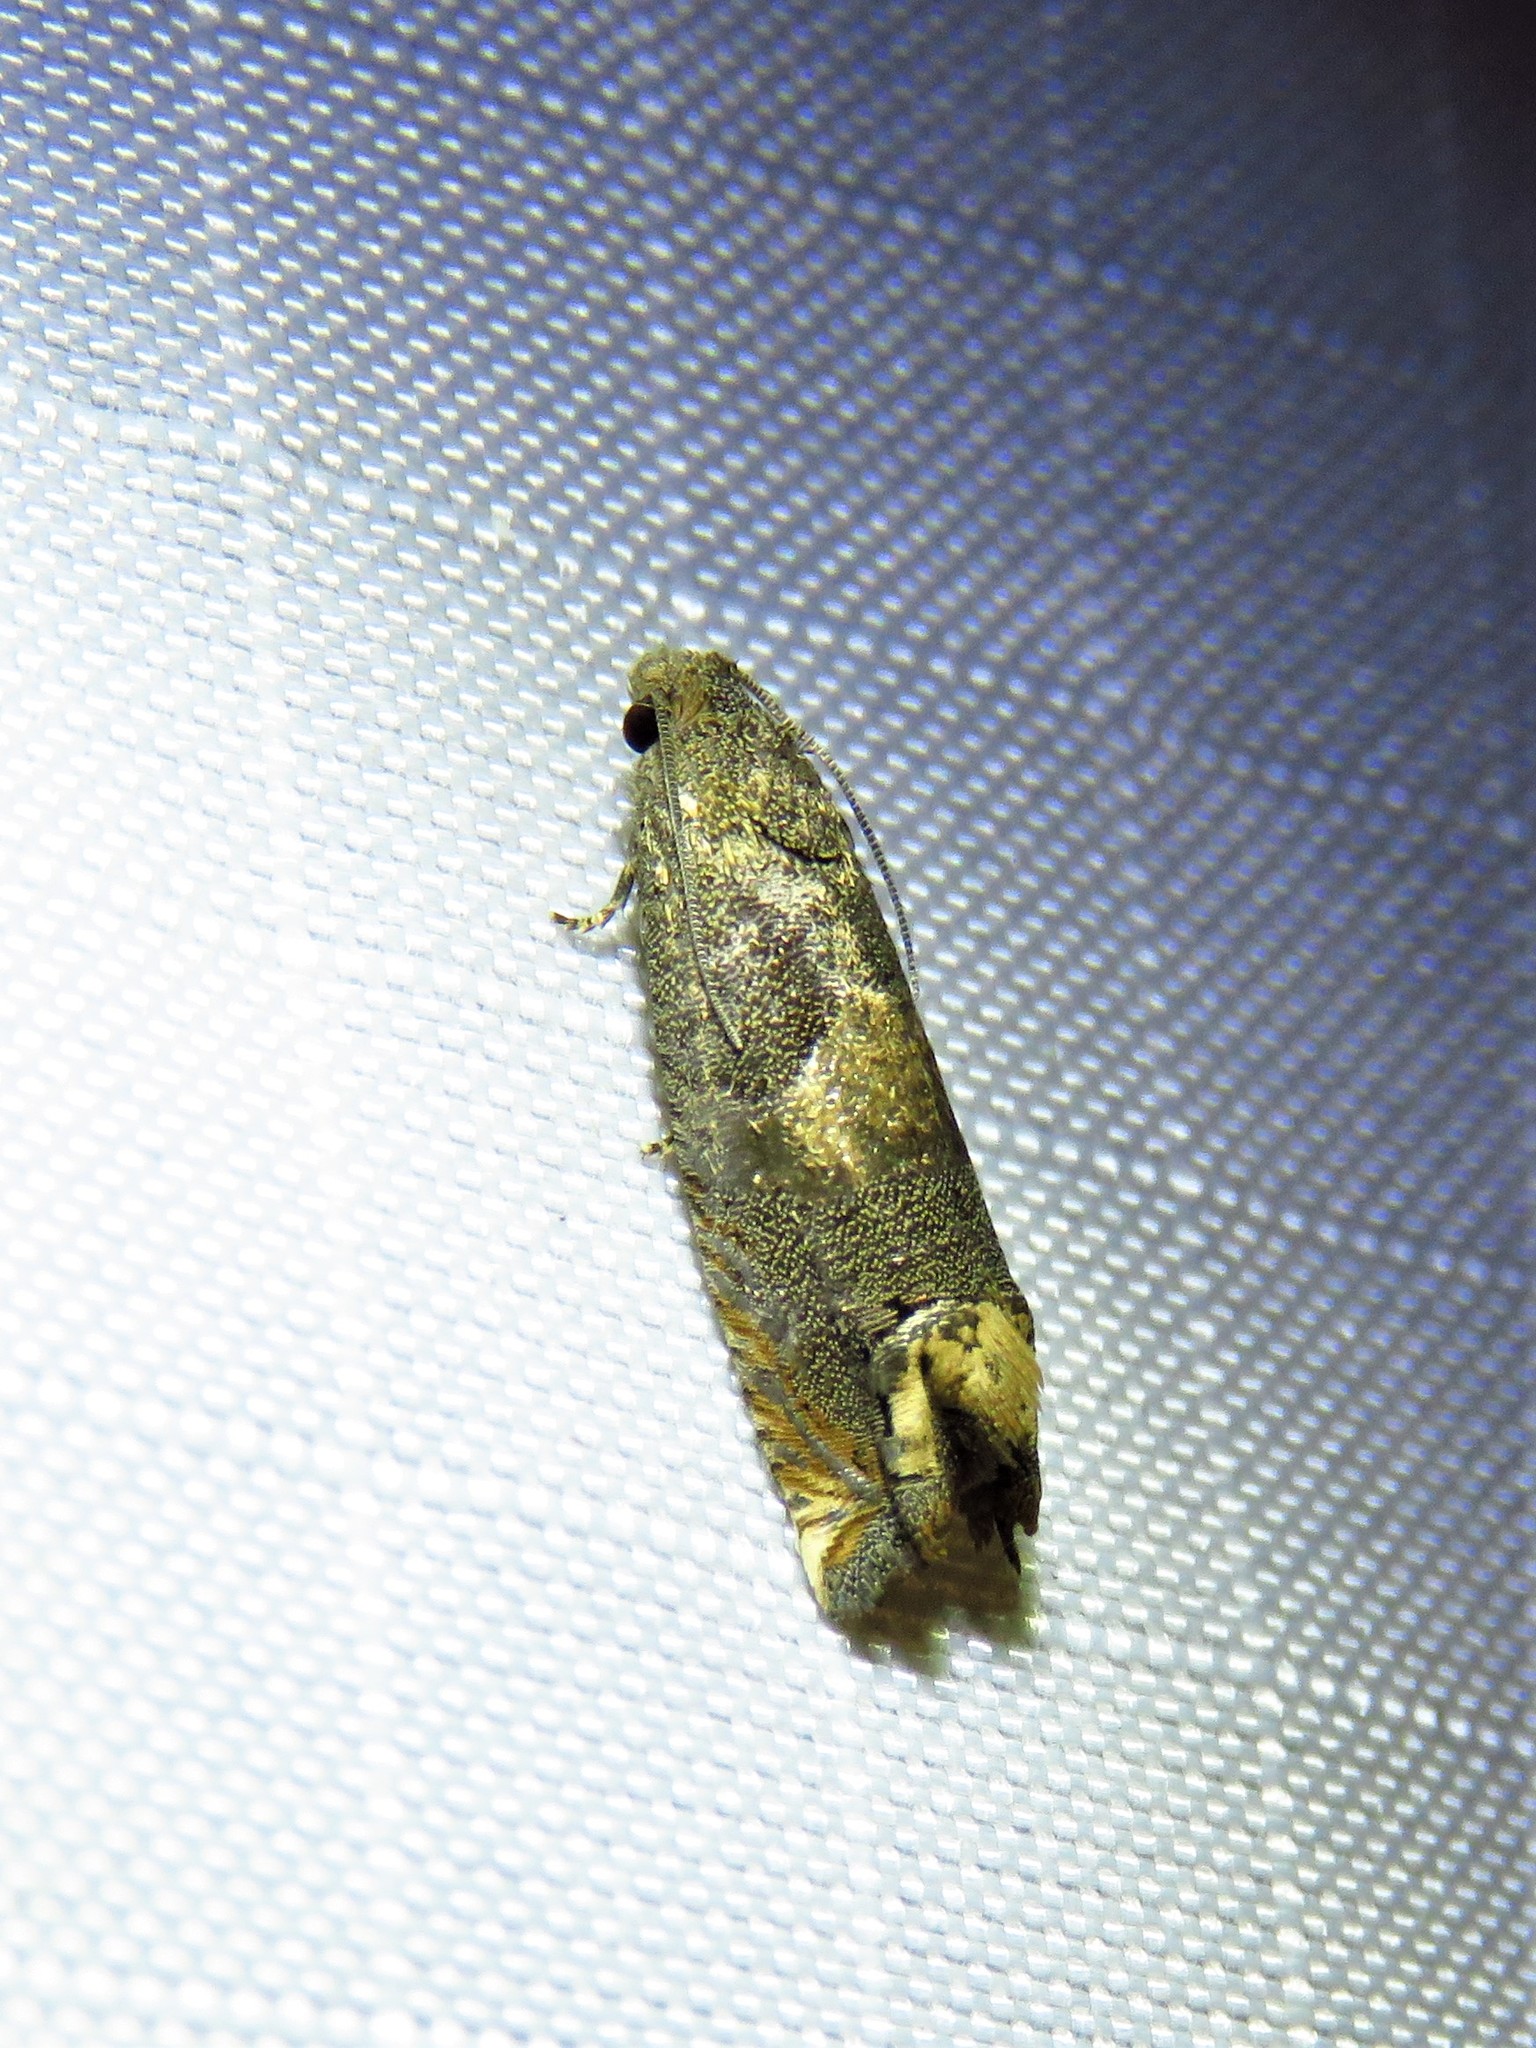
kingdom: Animalia
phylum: Arthropoda
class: Insecta
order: Lepidoptera
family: Tortricidae
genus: Epiblema
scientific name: Epiblema strenuana
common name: Ragweed borer moth
